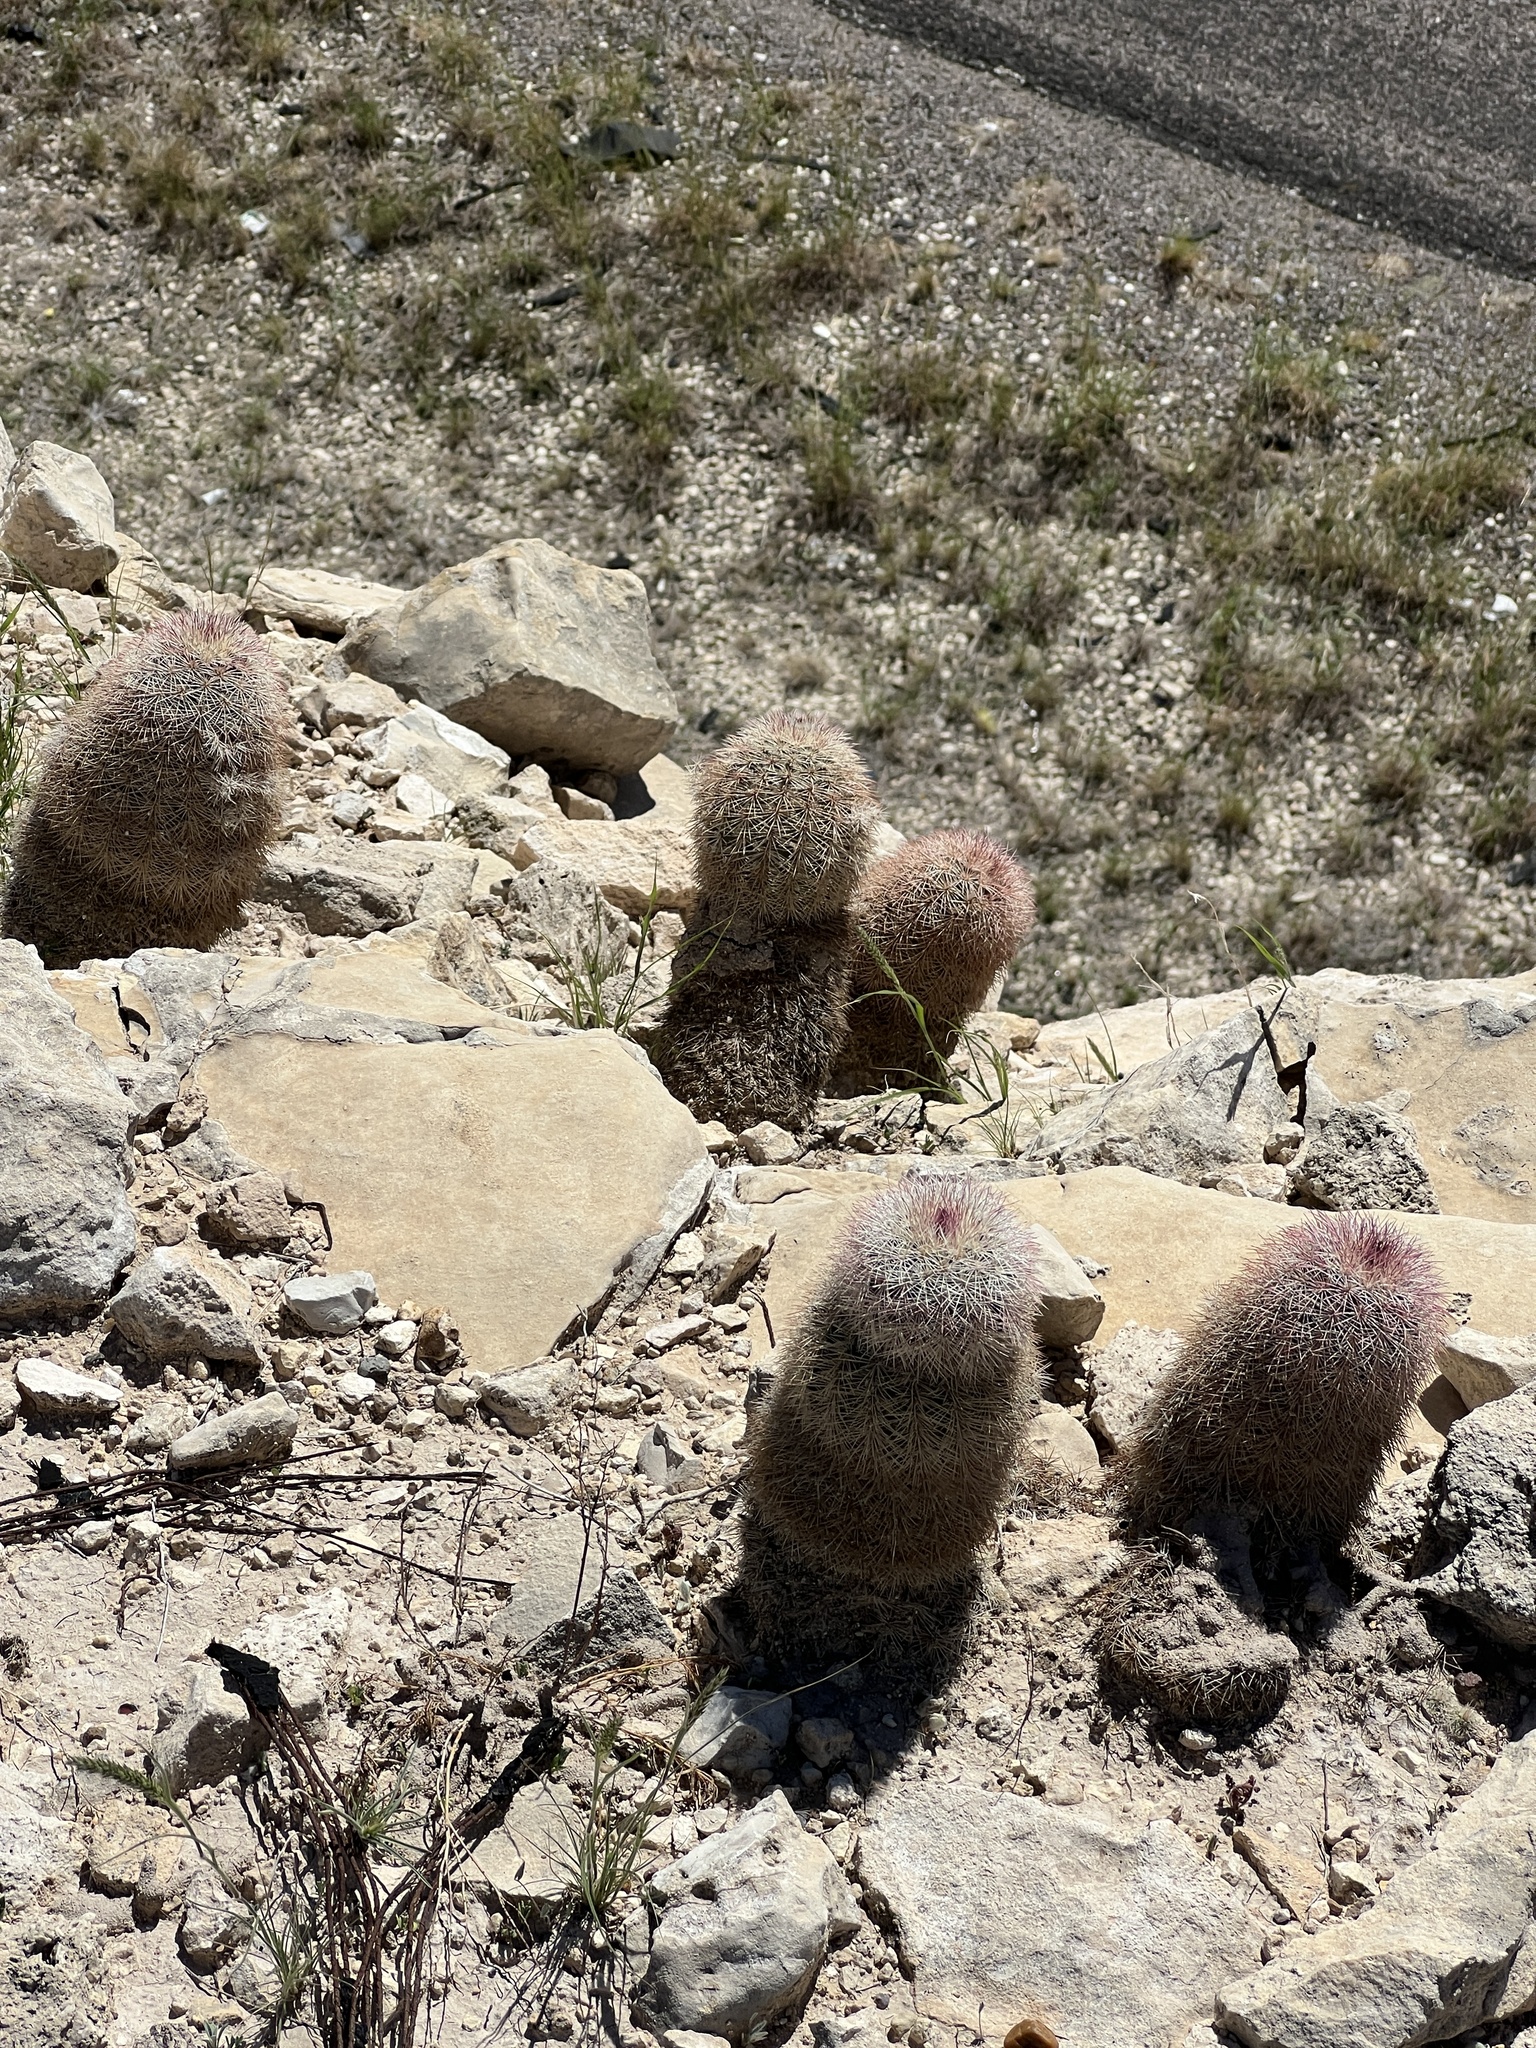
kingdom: Plantae
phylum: Tracheophyta
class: Magnoliopsida
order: Caryophyllales
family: Cactaceae
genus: Echinocereus
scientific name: Echinocereus dasyacanthus
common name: Spiny hedgehog cactus
